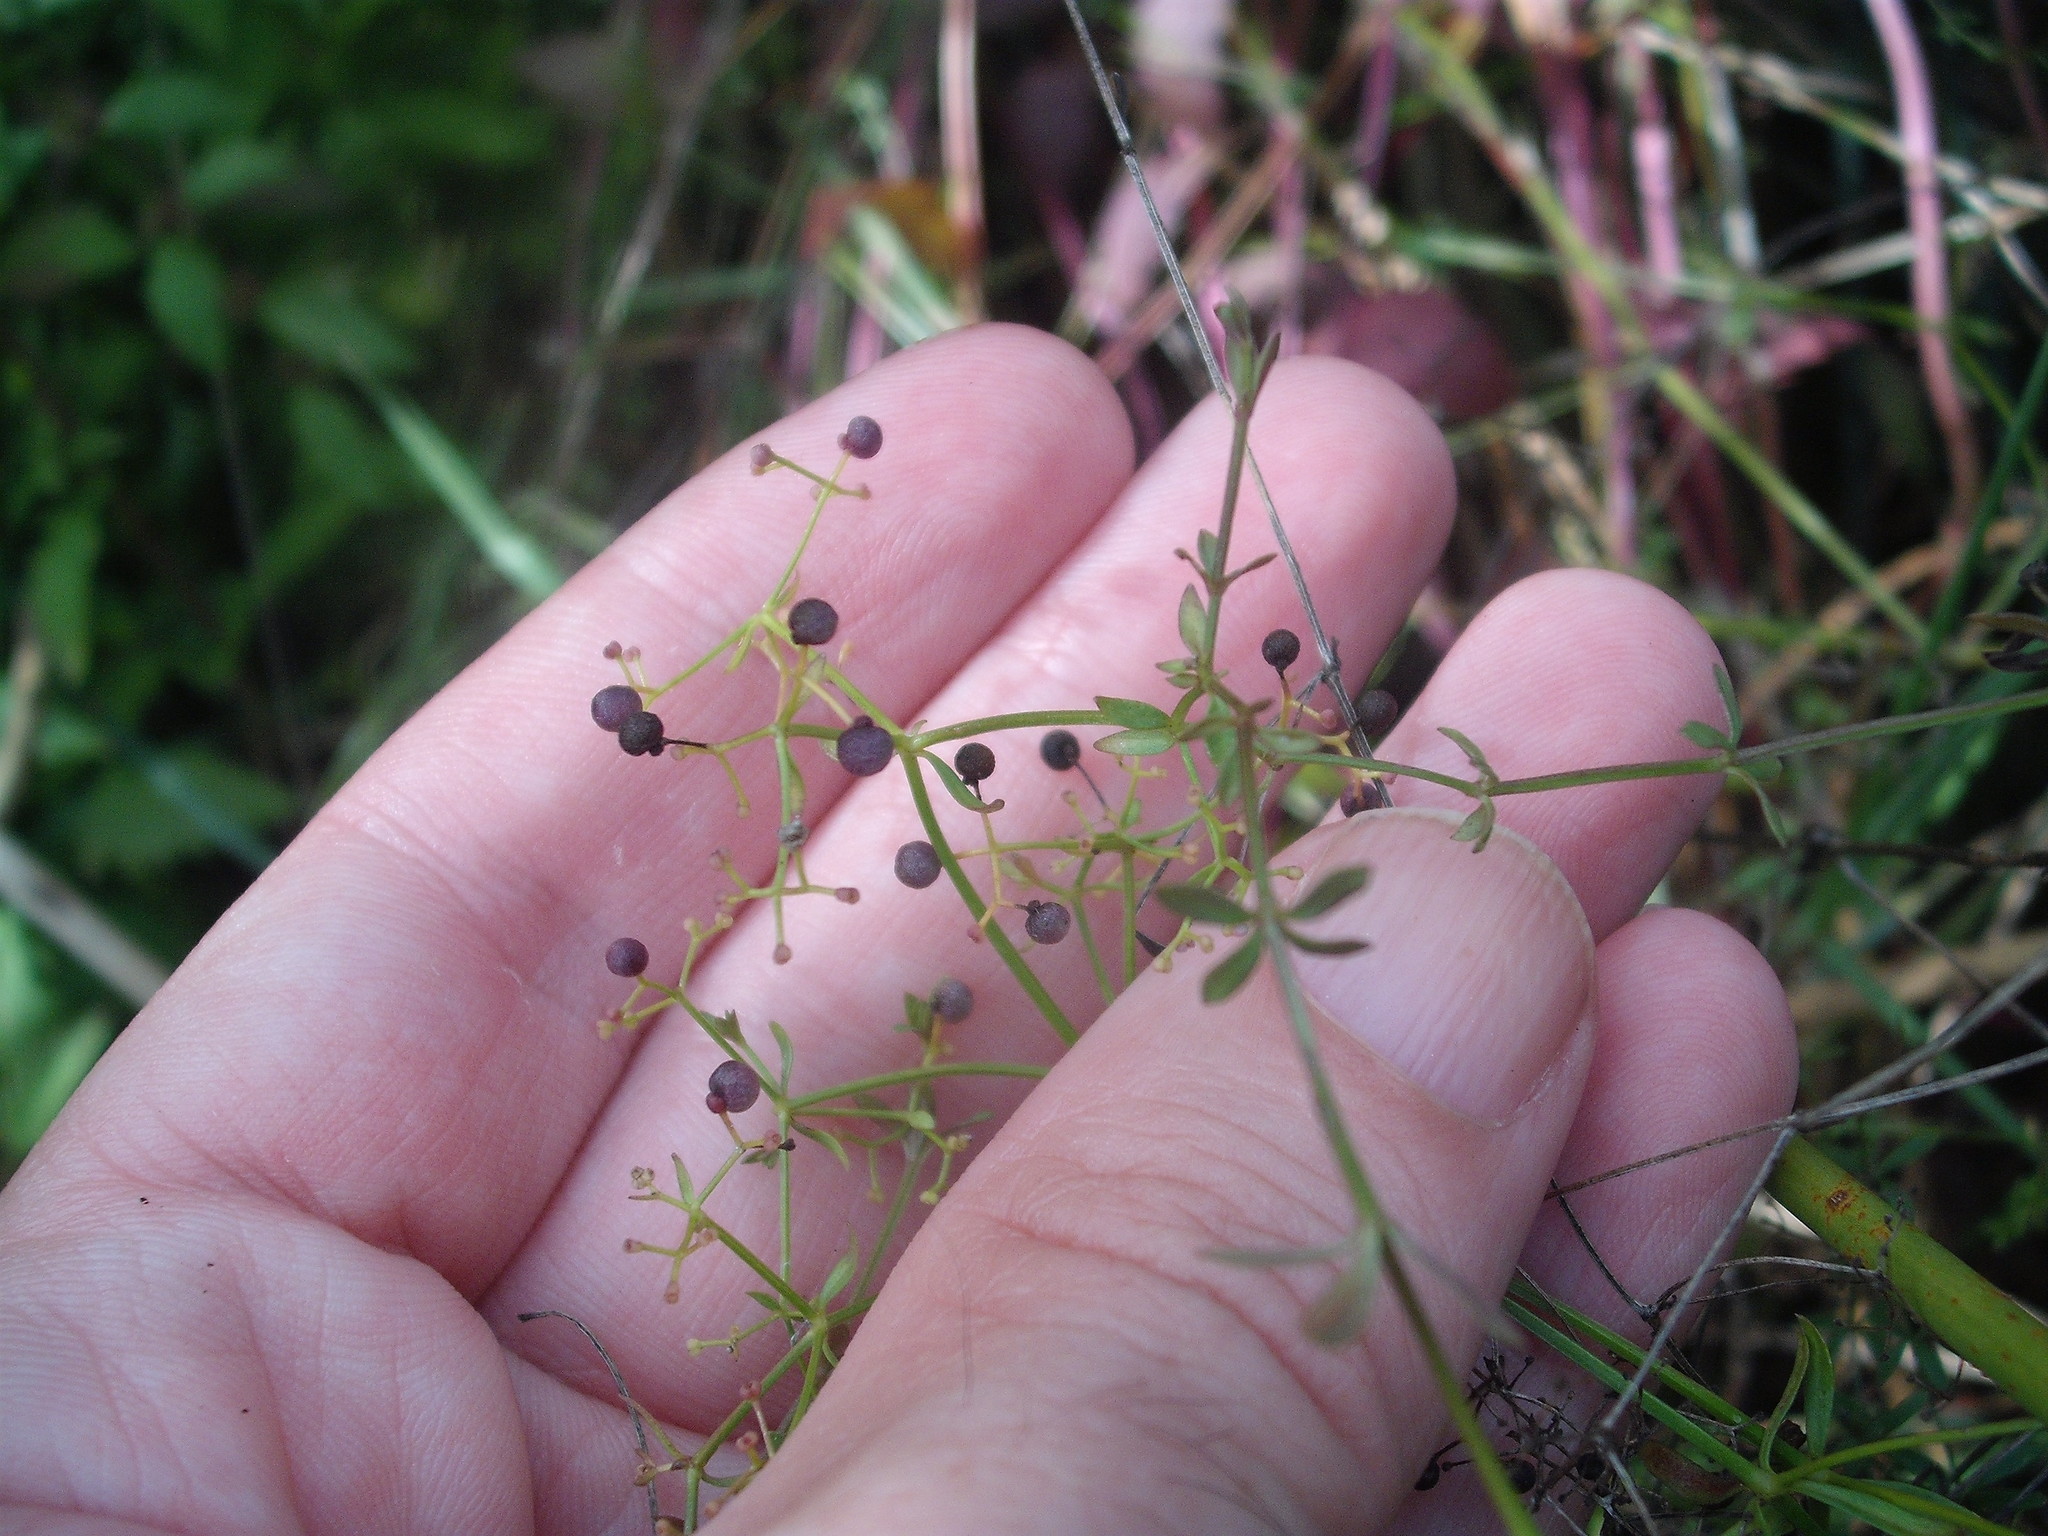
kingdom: Plantae
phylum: Tracheophyta
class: Magnoliopsida
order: Gentianales
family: Rubiaceae
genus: Galium
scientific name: Galium palustre
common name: Common marsh-bedstraw
